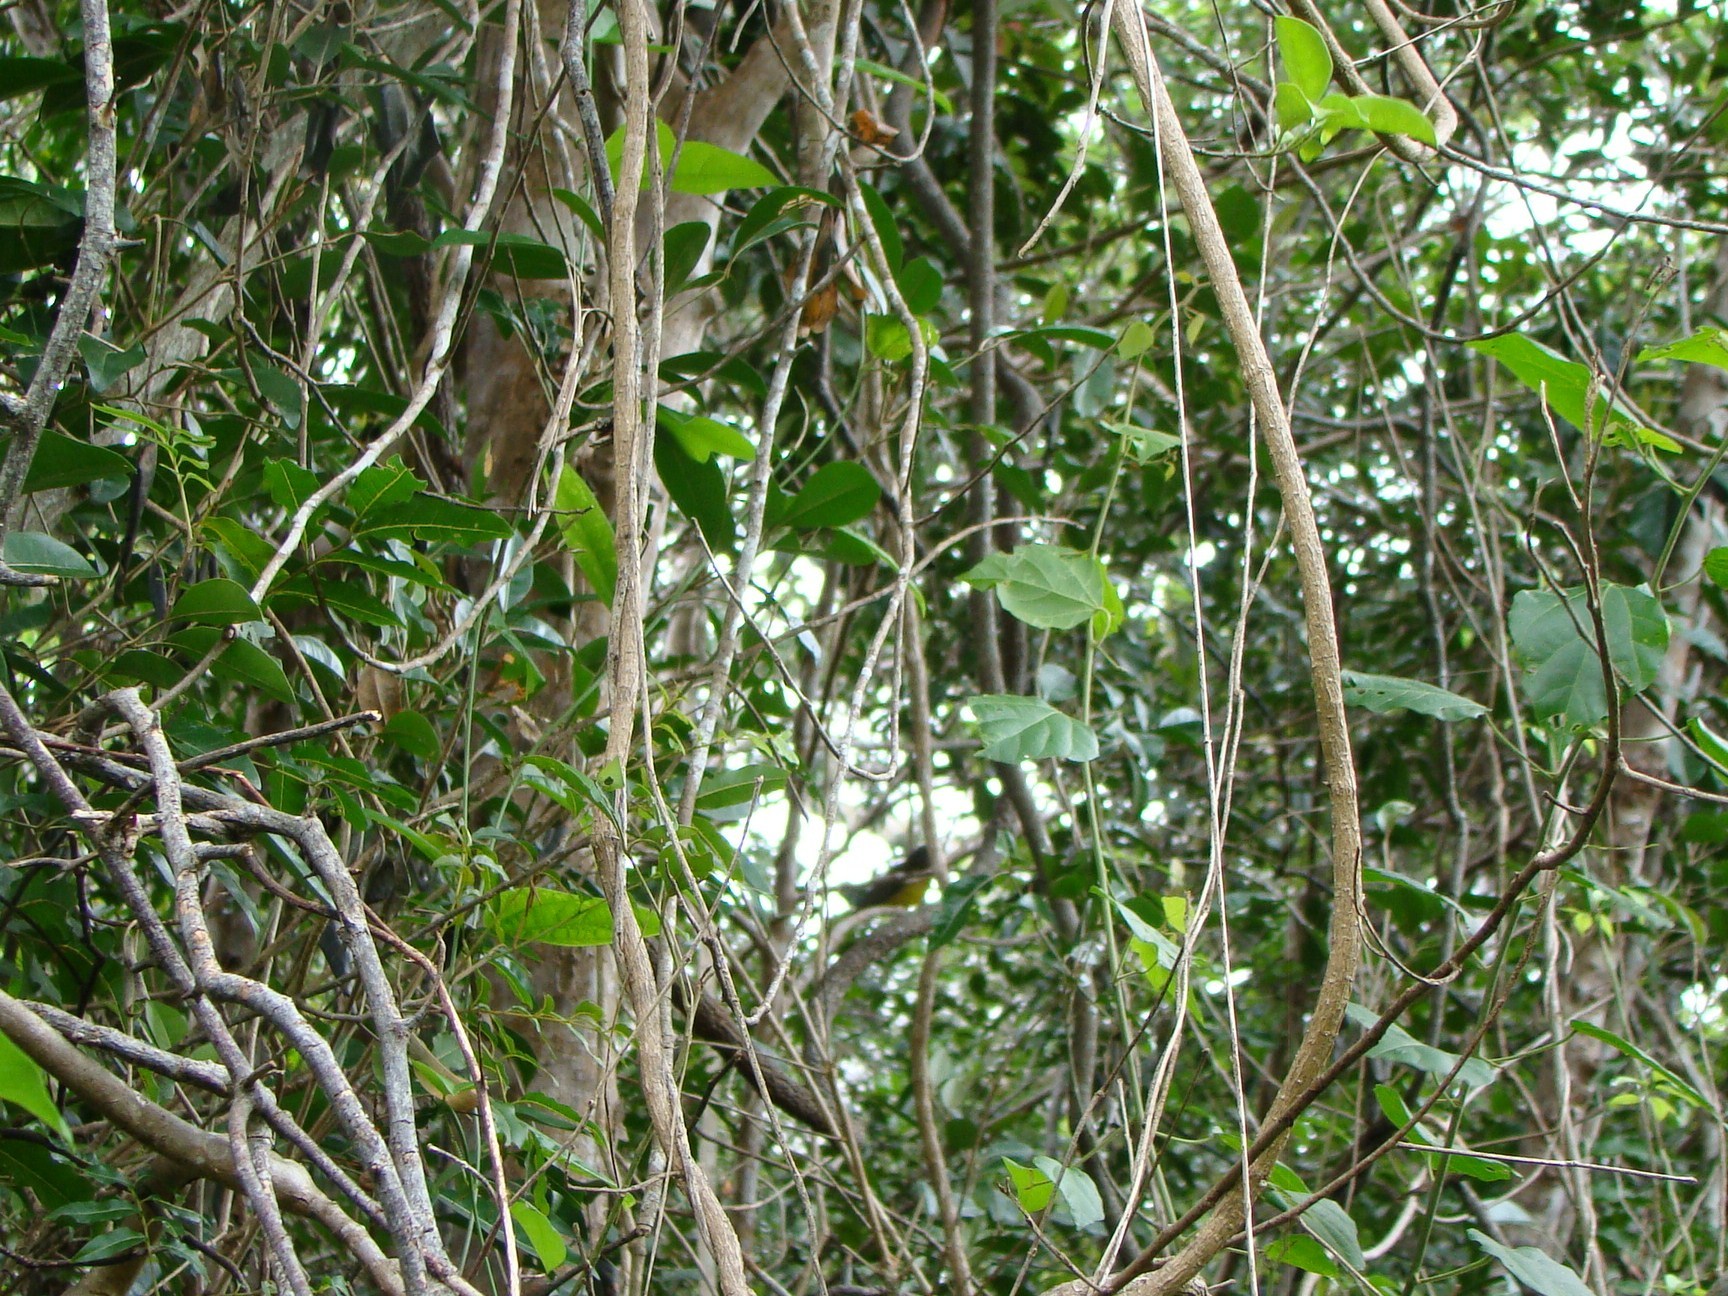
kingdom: Animalia
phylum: Chordata
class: Aves
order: Passeriformes
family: Pachycephalidae
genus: Pachycephala
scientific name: Pachycephala chlorura
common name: Melanesian whistler
